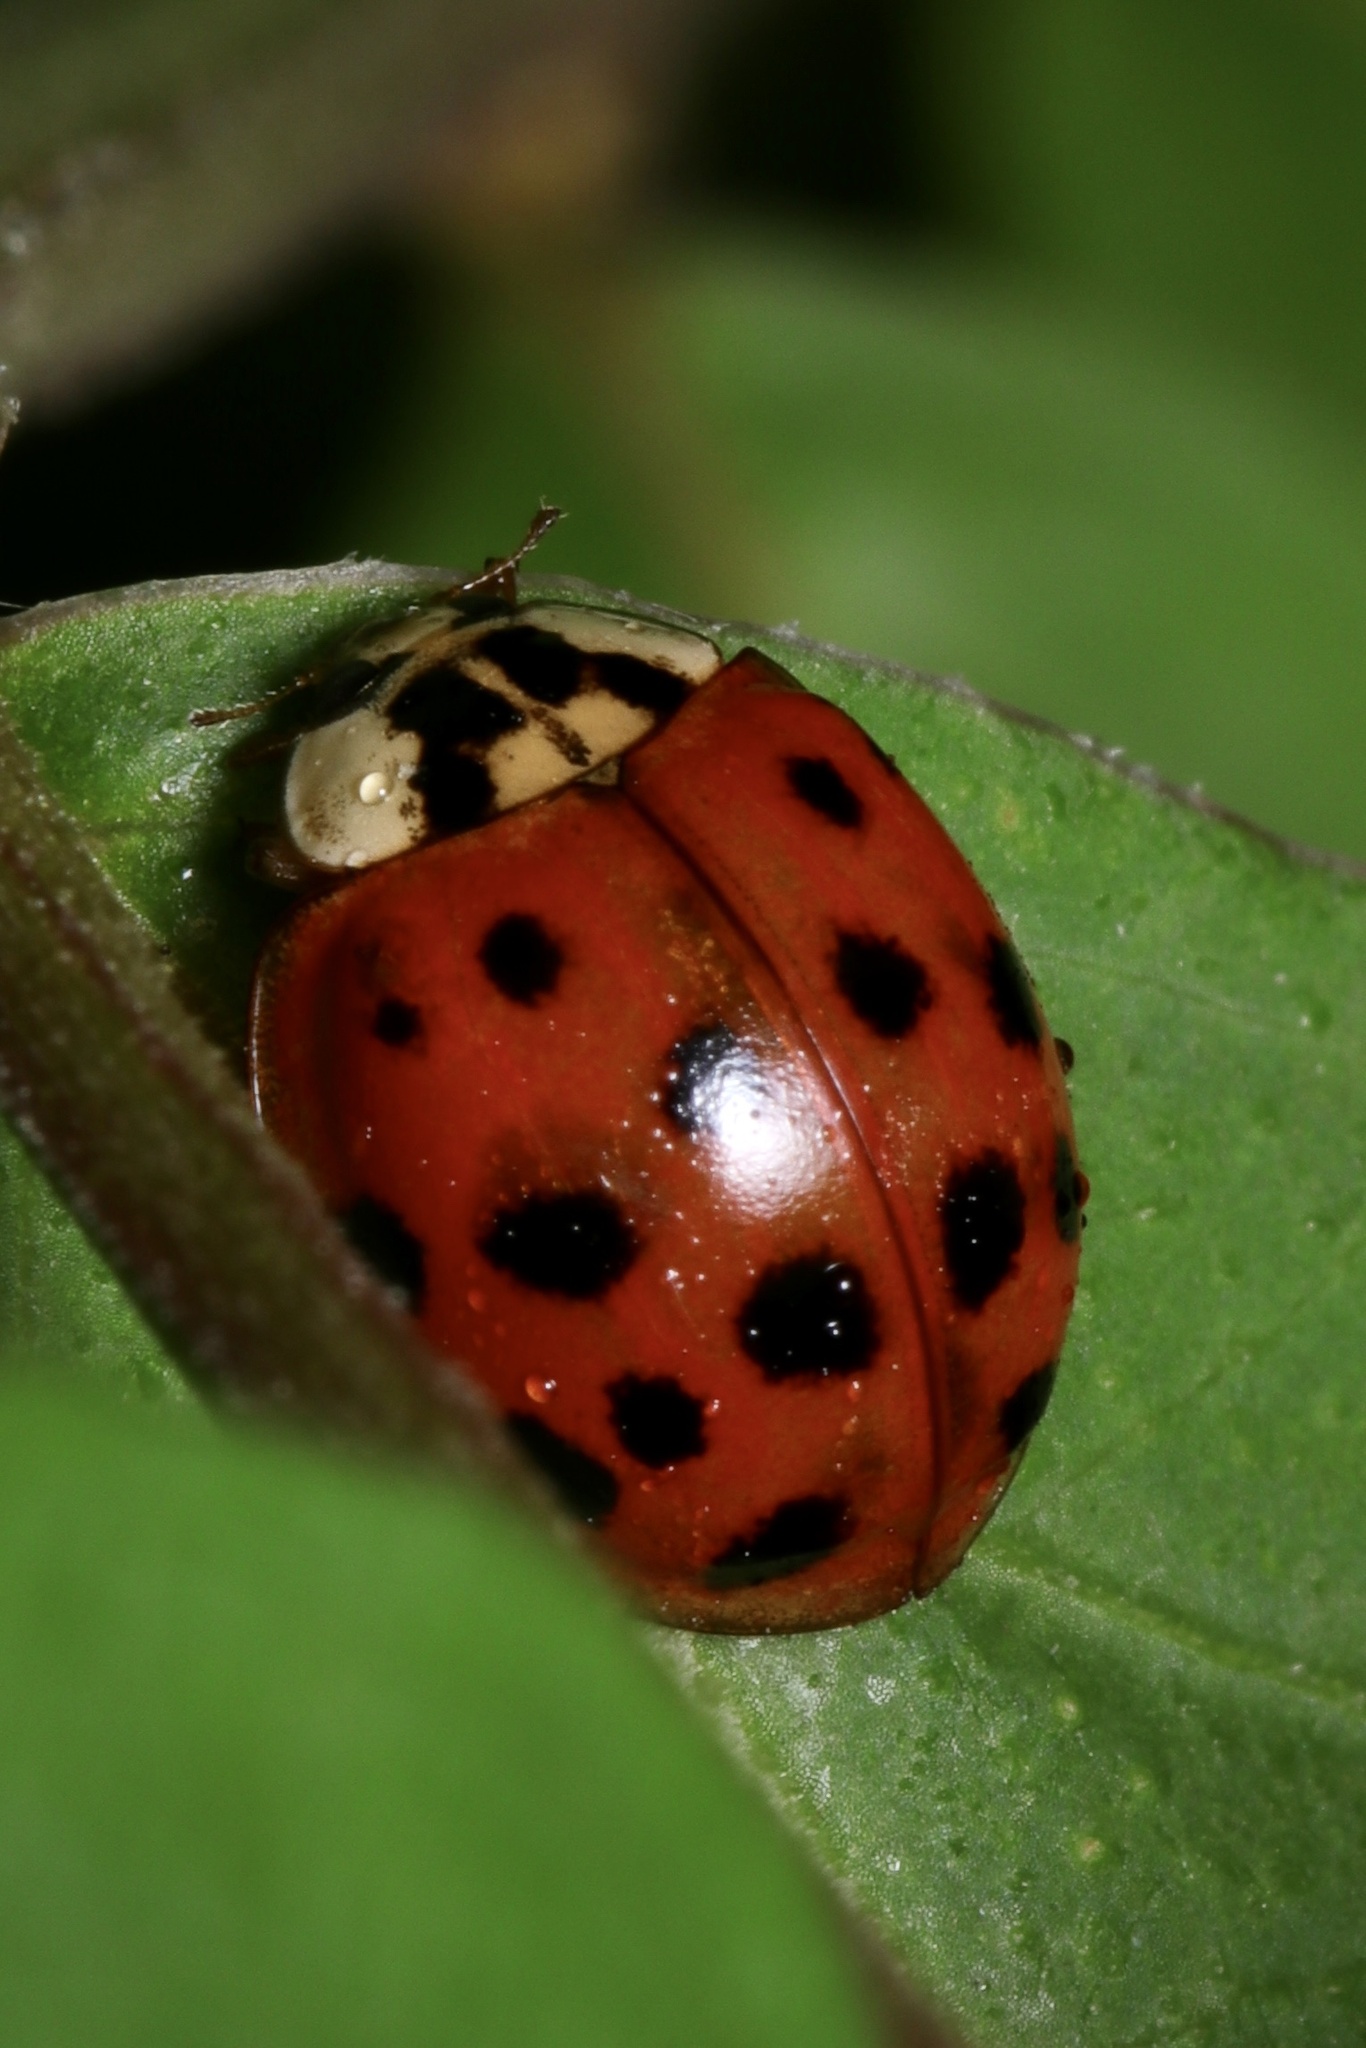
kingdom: Animalia
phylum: Arthropoda
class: Insecta
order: Coleoptera
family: Coccinellidae
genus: Harmonia
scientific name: Harmonia axyridis
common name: Harlequin ladybird
